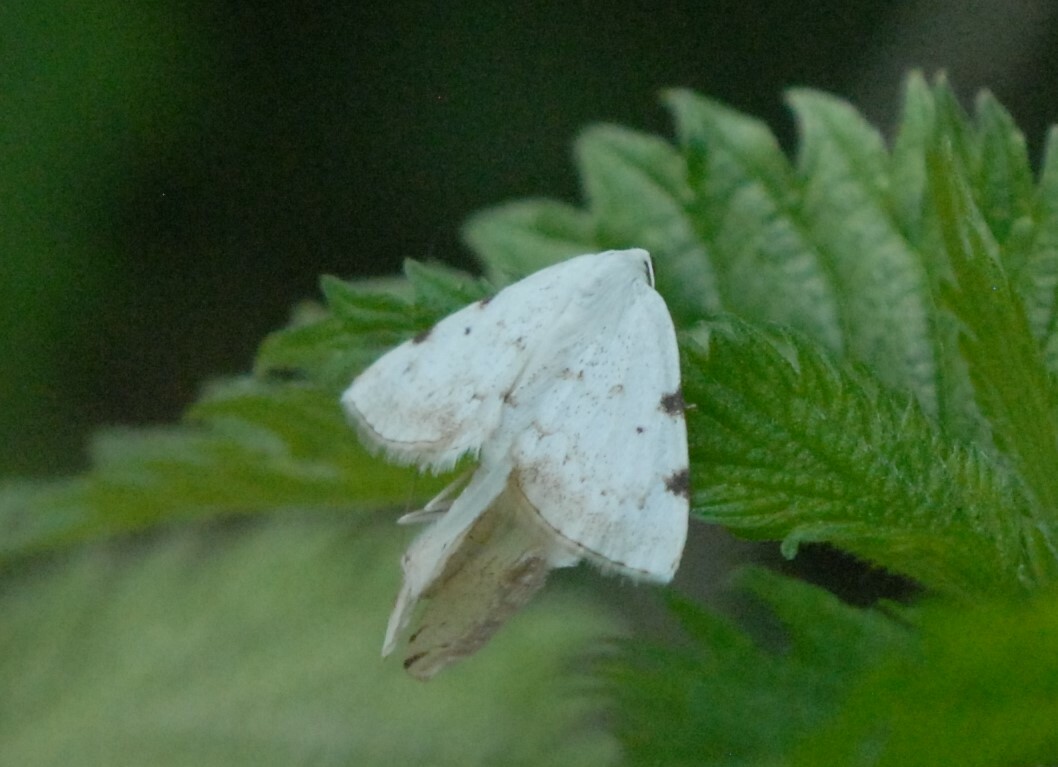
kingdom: Animalia
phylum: Arthropoda
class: Insecta
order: Lepidoptera
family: Geometridae
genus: Lomographa
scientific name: Lomographa bimaculata
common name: White-pinion spotted
